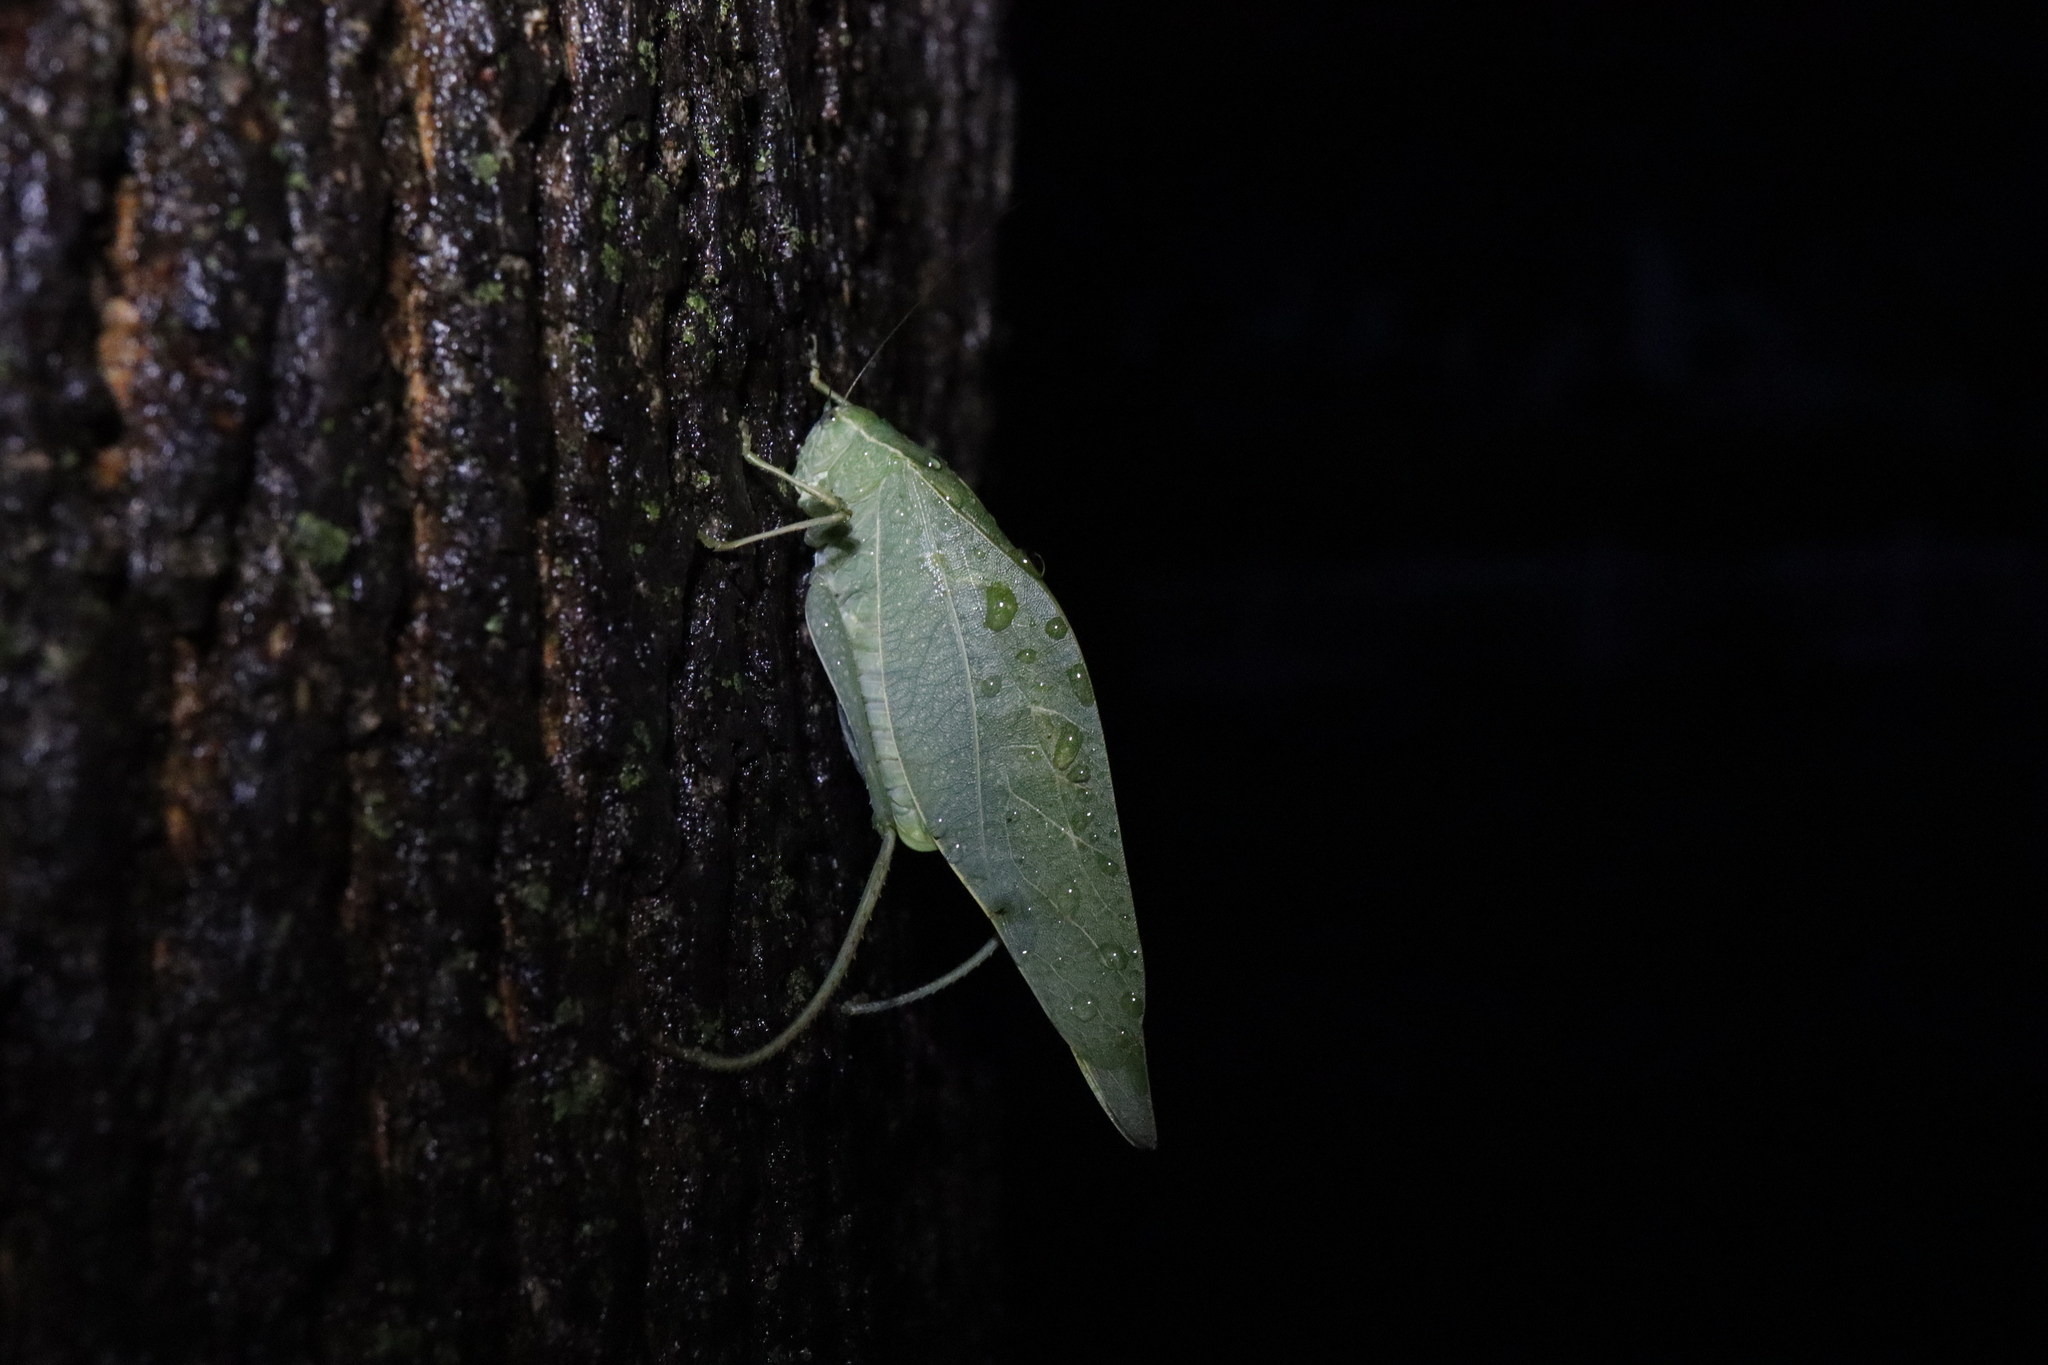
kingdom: Animalia
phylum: Arthropoda
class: Insecta
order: Orthoptera
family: Tettigoniidae
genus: Microcentrum
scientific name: Microcentrum rhombifolium
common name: Broad-winged katydid
